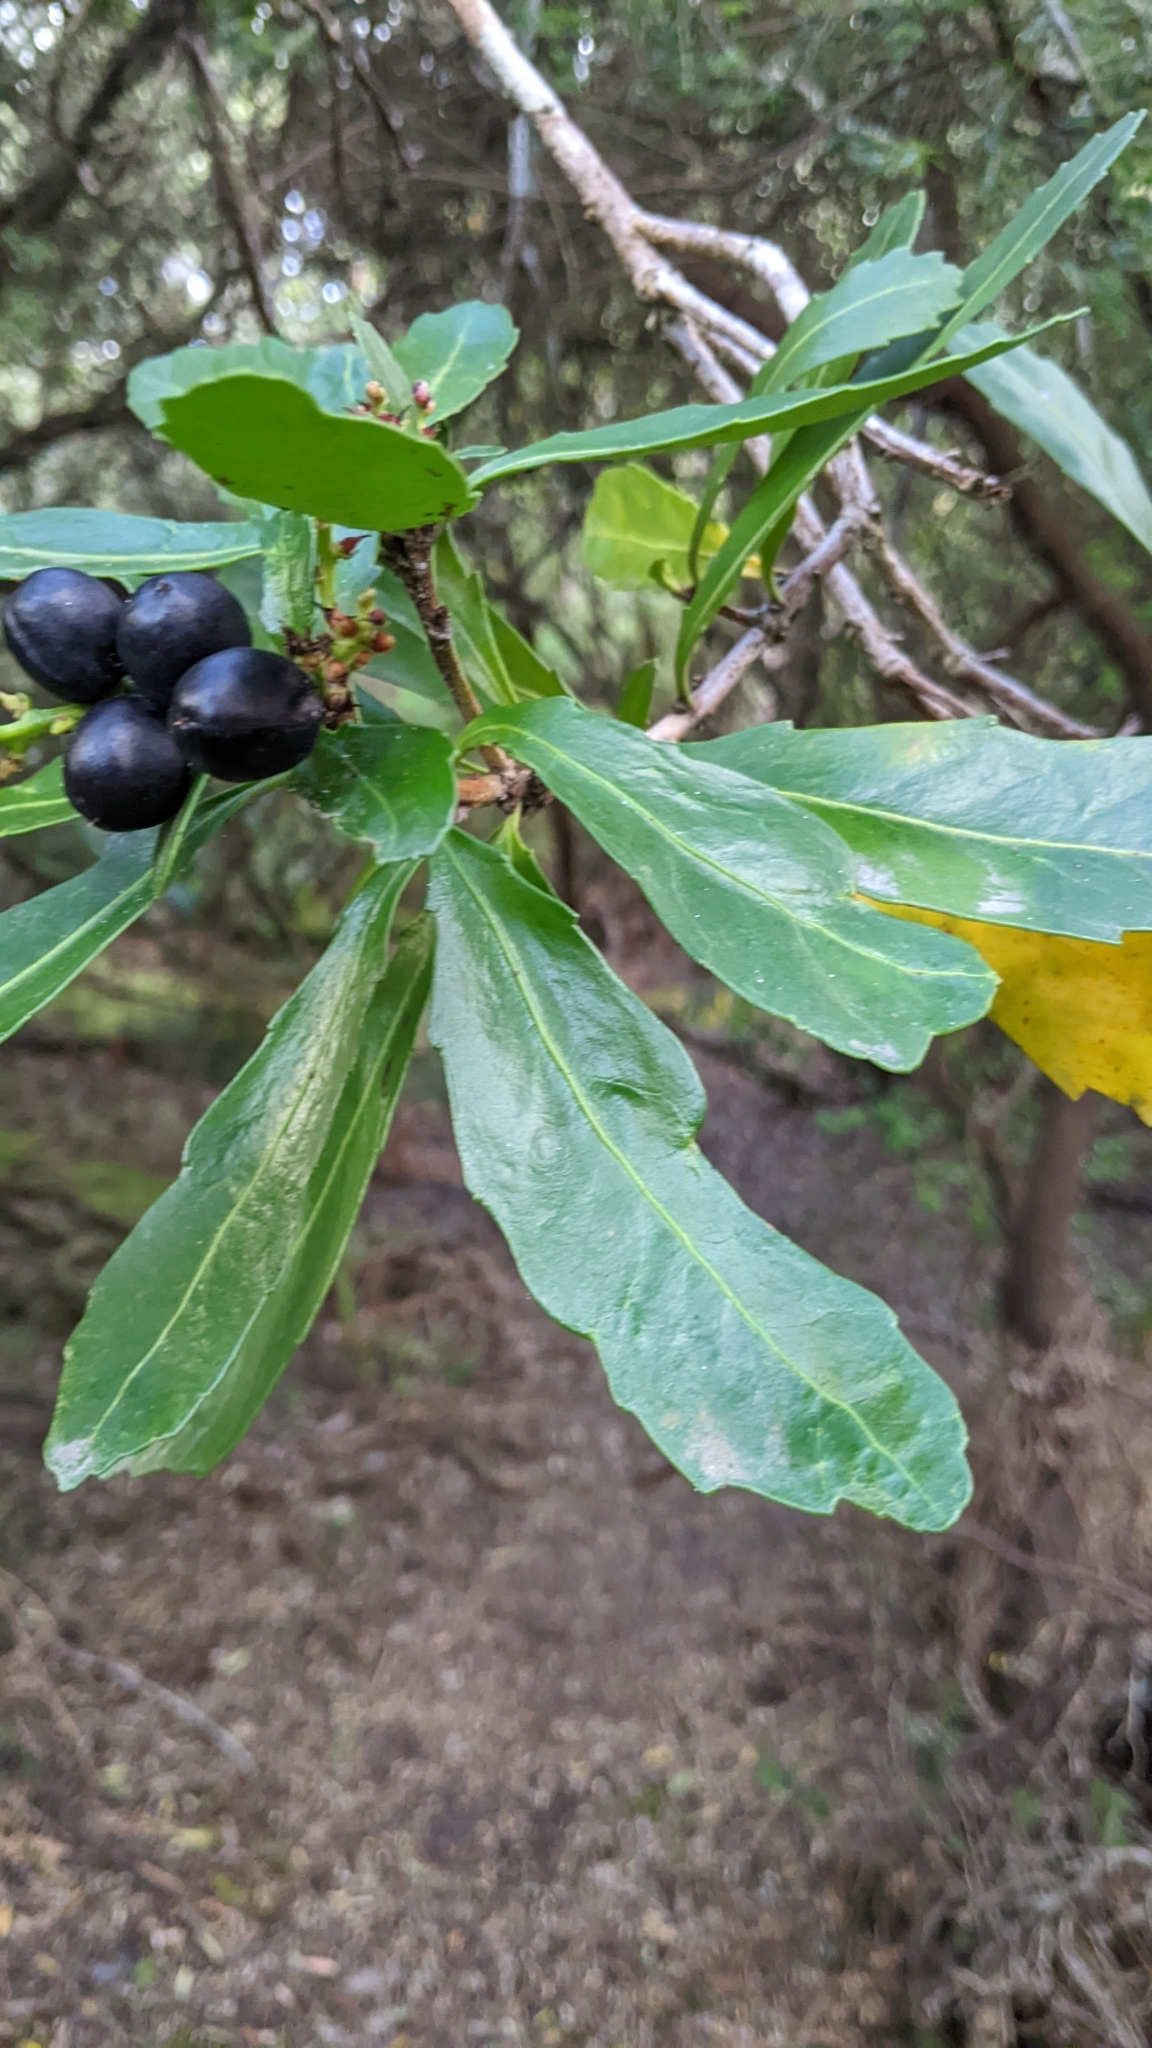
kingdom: Plantae
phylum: Tracheophyta
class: Magnoliopsida
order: Proteales
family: Proteaceae
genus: Cenarrhenes
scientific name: Cenarrhenes nitida
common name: Native plum
